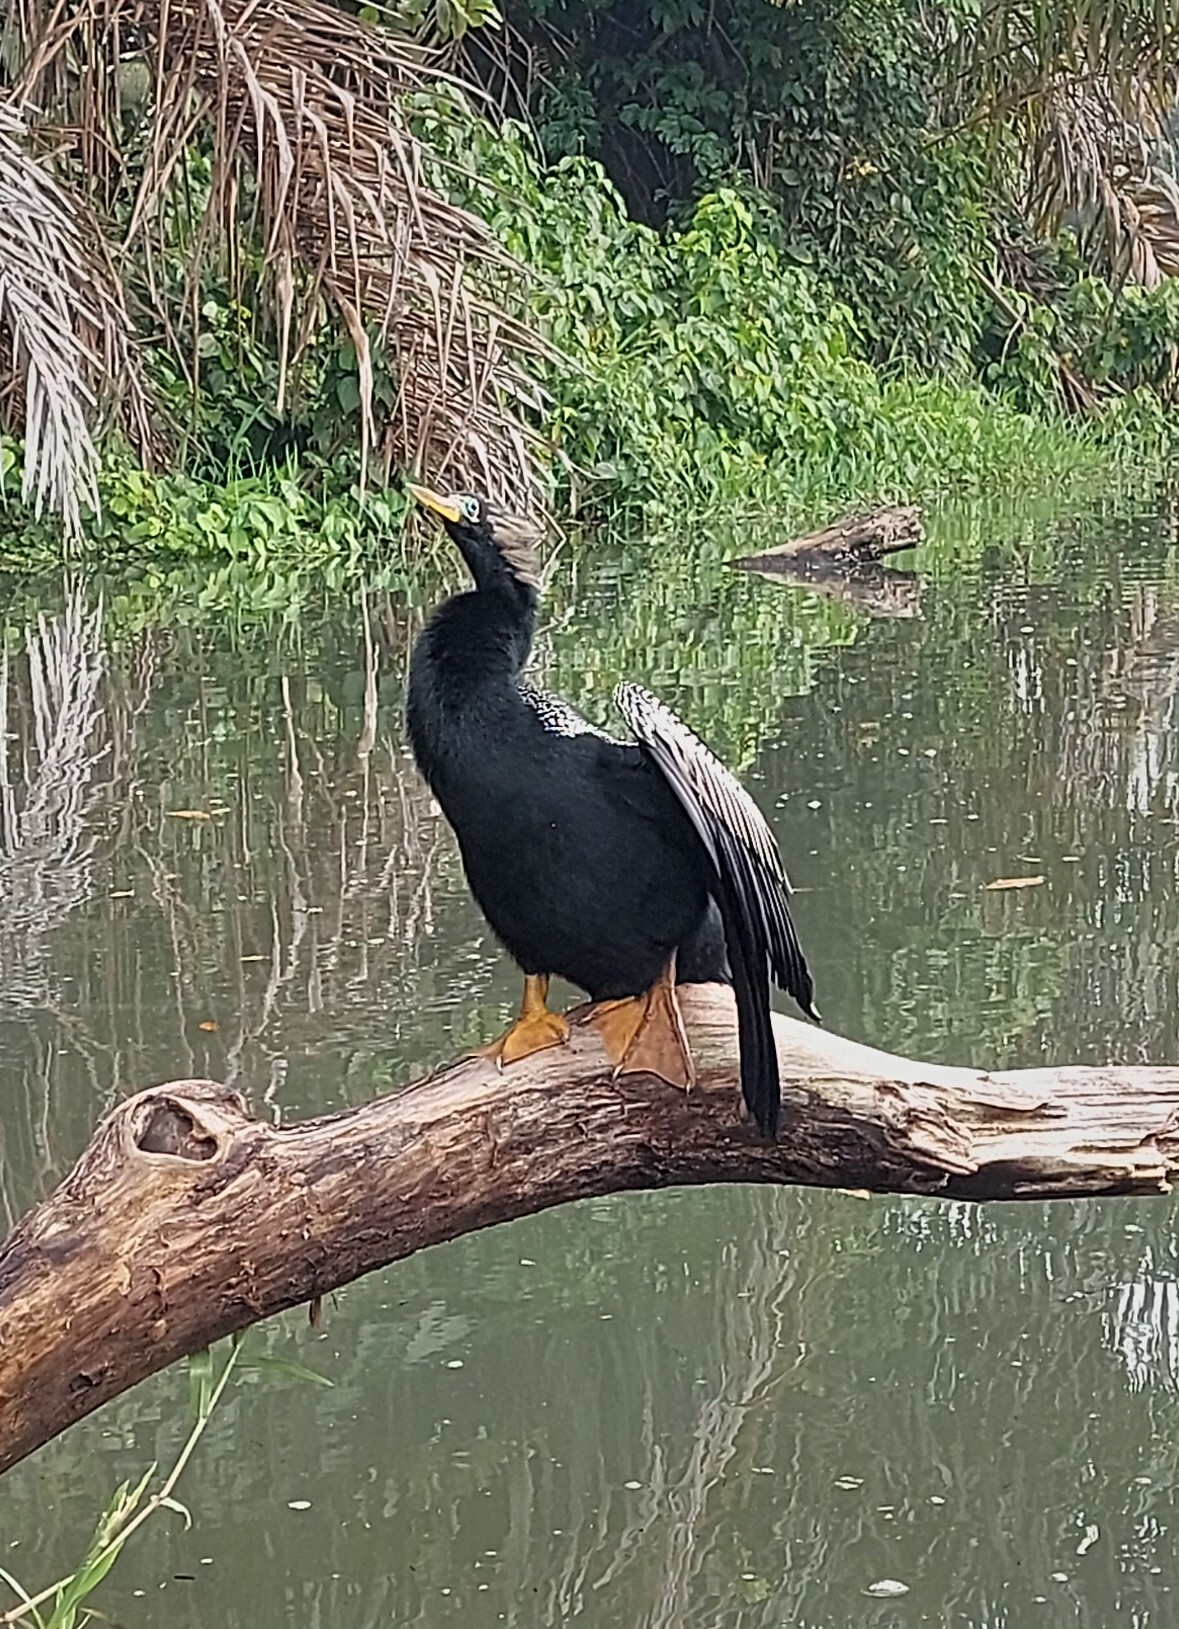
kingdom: Animalia
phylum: Chordata
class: Aves
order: Suliformes
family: Anhingidae
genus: Anhinga
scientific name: Anhinga anhinga
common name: Anhinga
